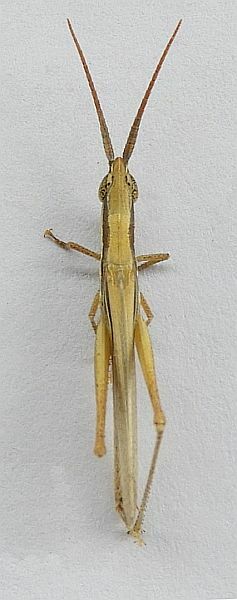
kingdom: Animalia
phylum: Arthropoda
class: Insecta
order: Orthoptera
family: Acrididae
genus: Paropomala
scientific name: Paropomala pallida
